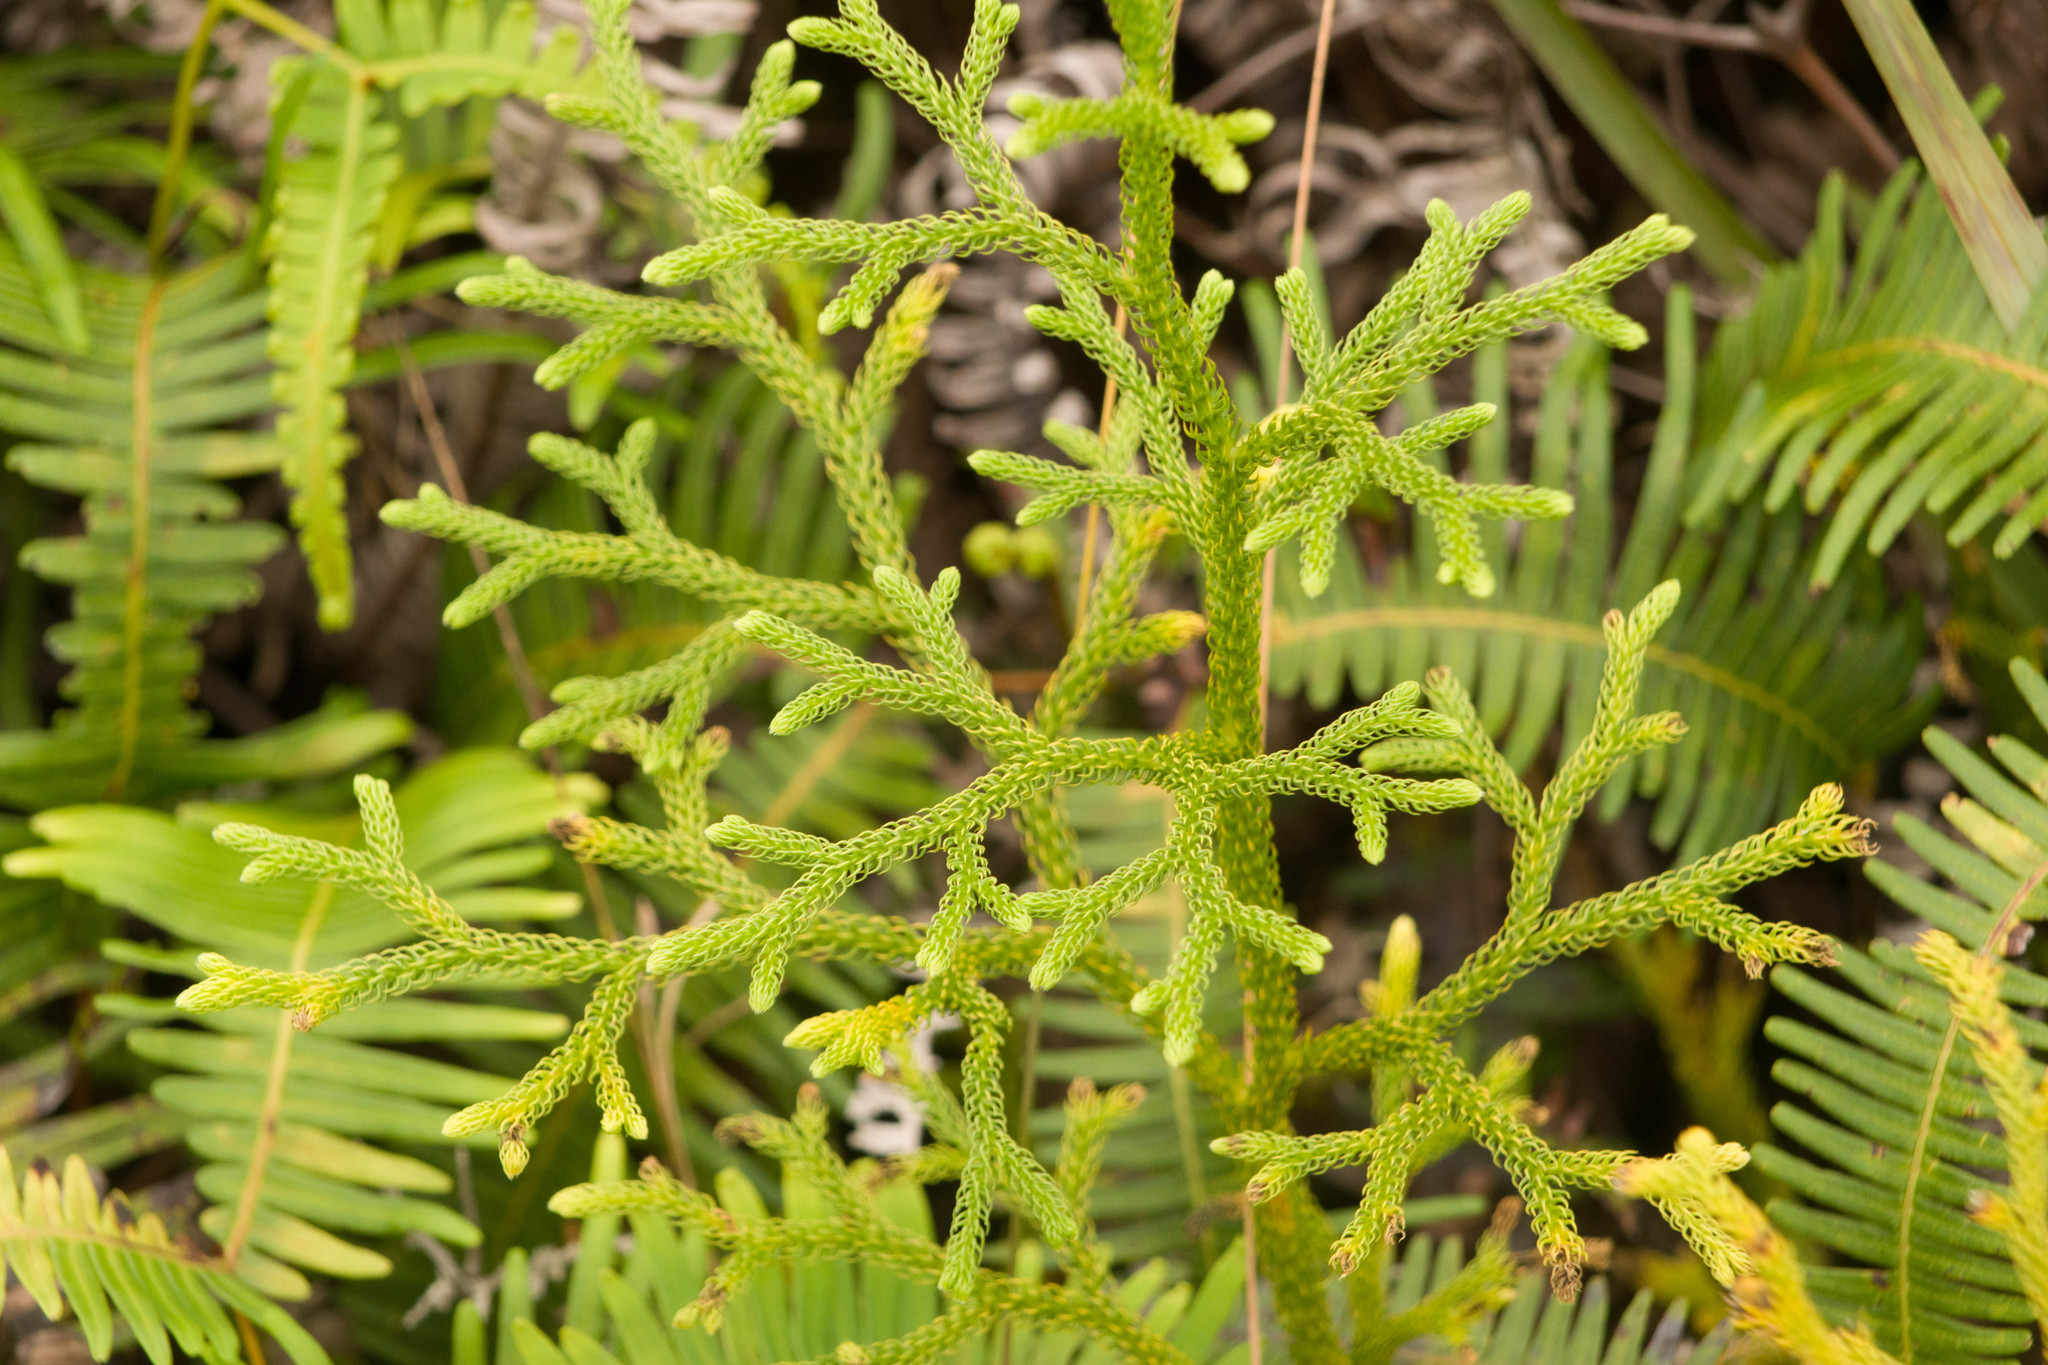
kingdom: Plantae
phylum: Tracheophyta
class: Lycopodiopsida
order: Lycopodiales
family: Lycopodiaceae
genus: Palhinhaea
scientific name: Palhinhaea cernua
